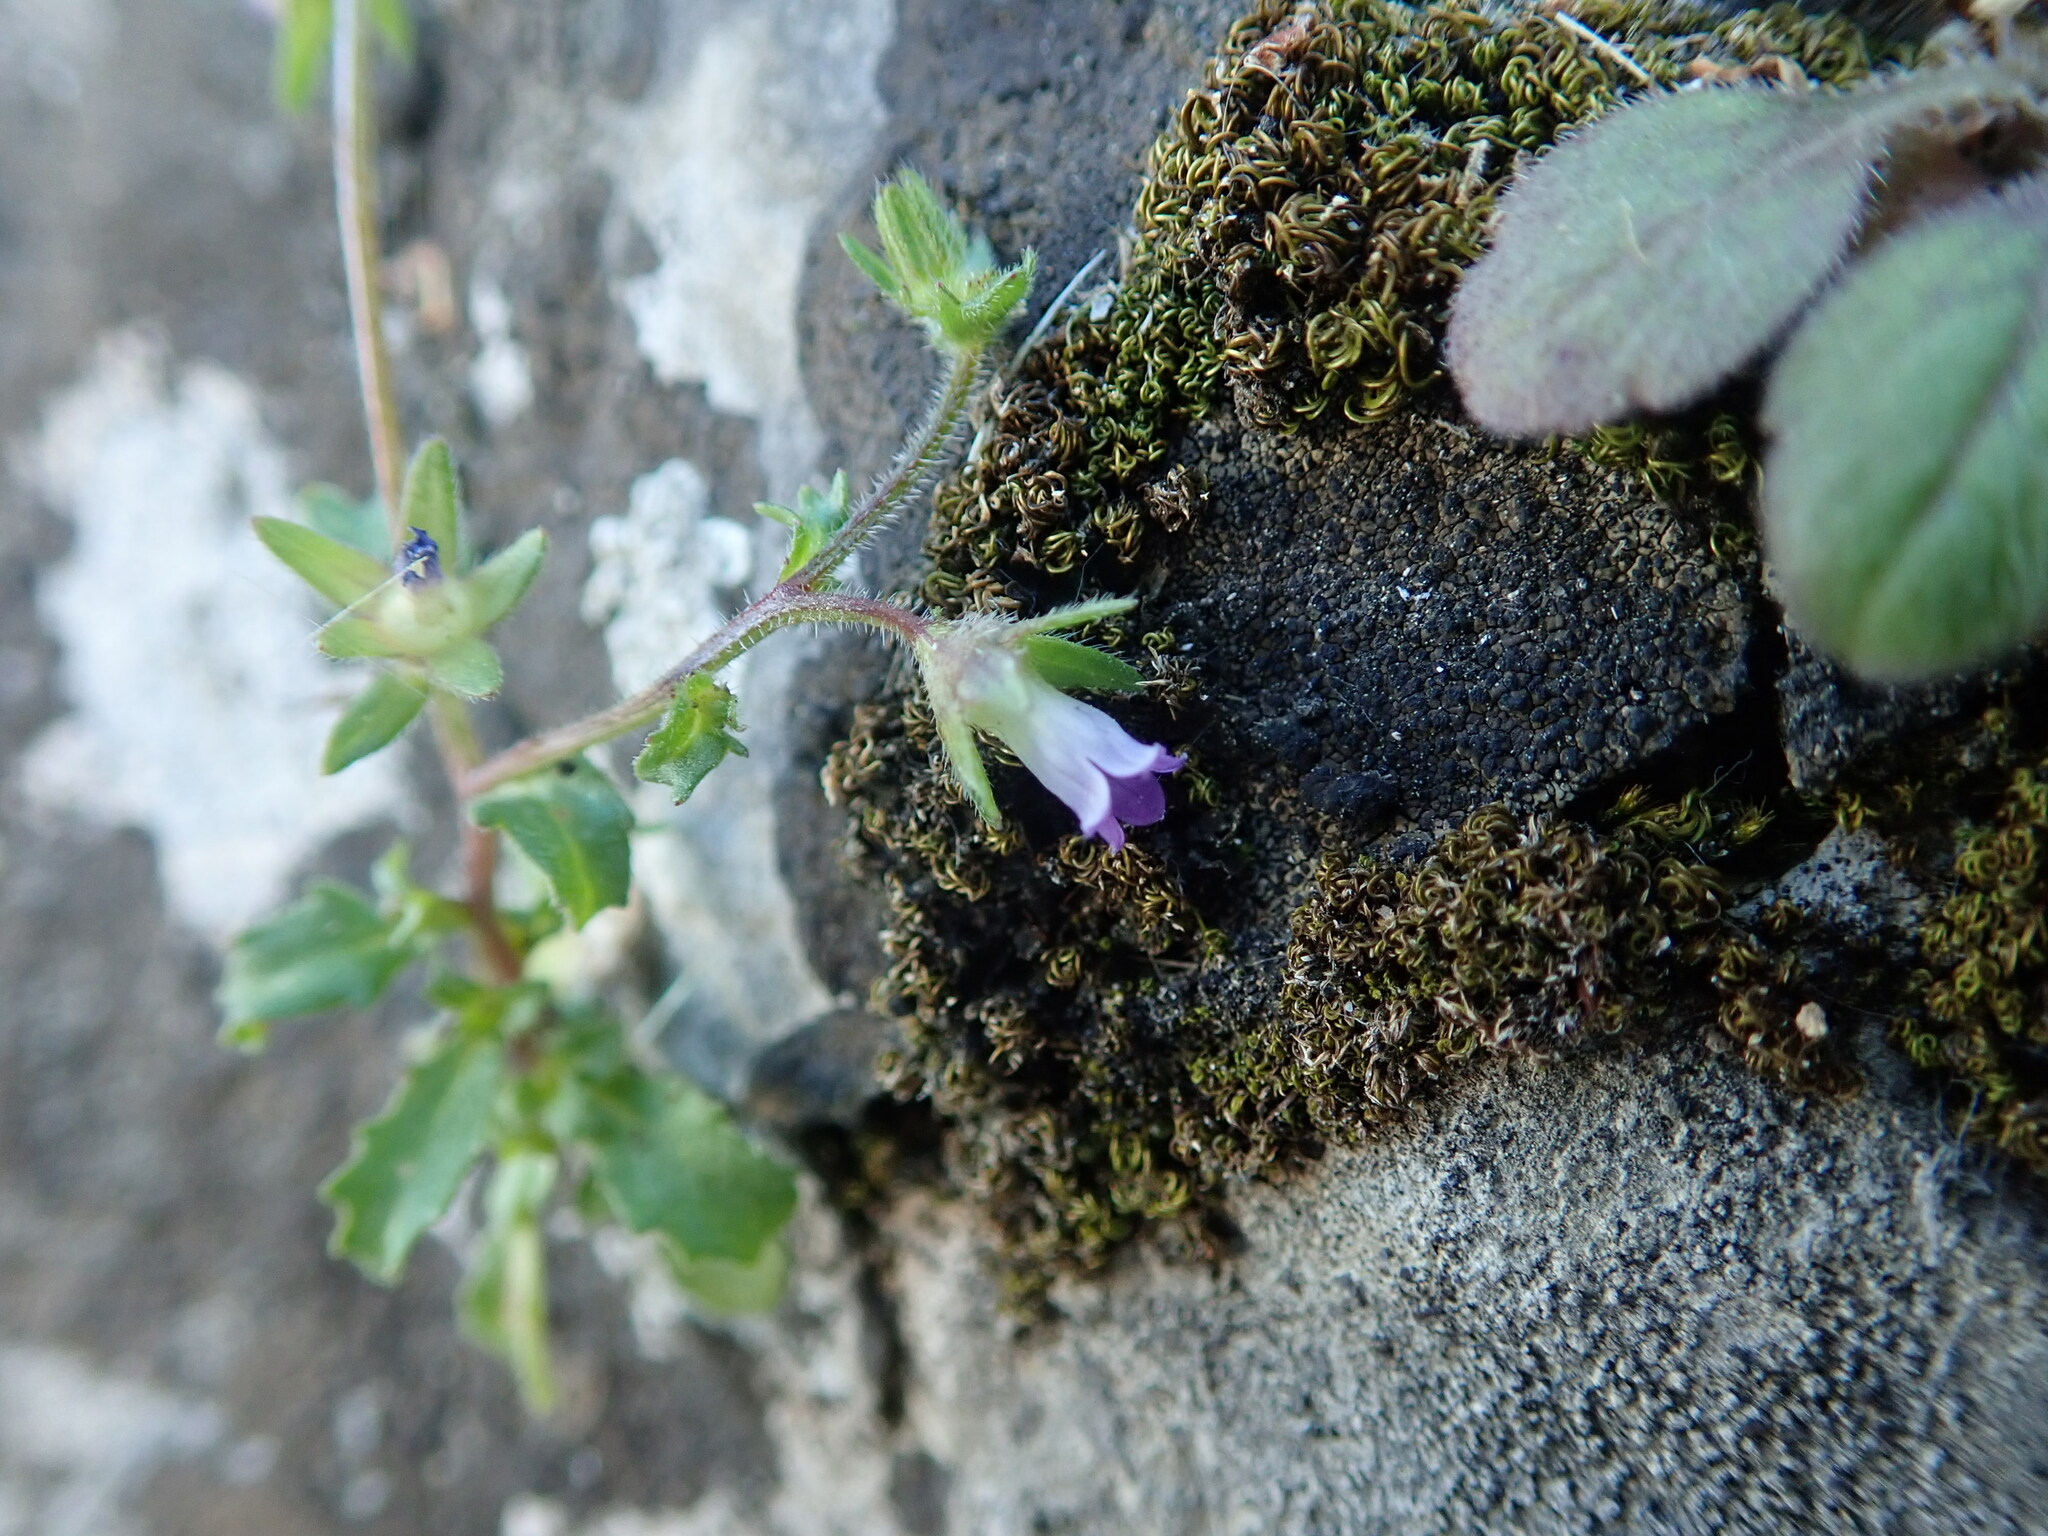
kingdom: Plantae
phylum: Tracheophyta
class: Magnoliopsida
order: Asterales
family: Campanulaceae
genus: Campanula
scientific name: Campanula erinus
